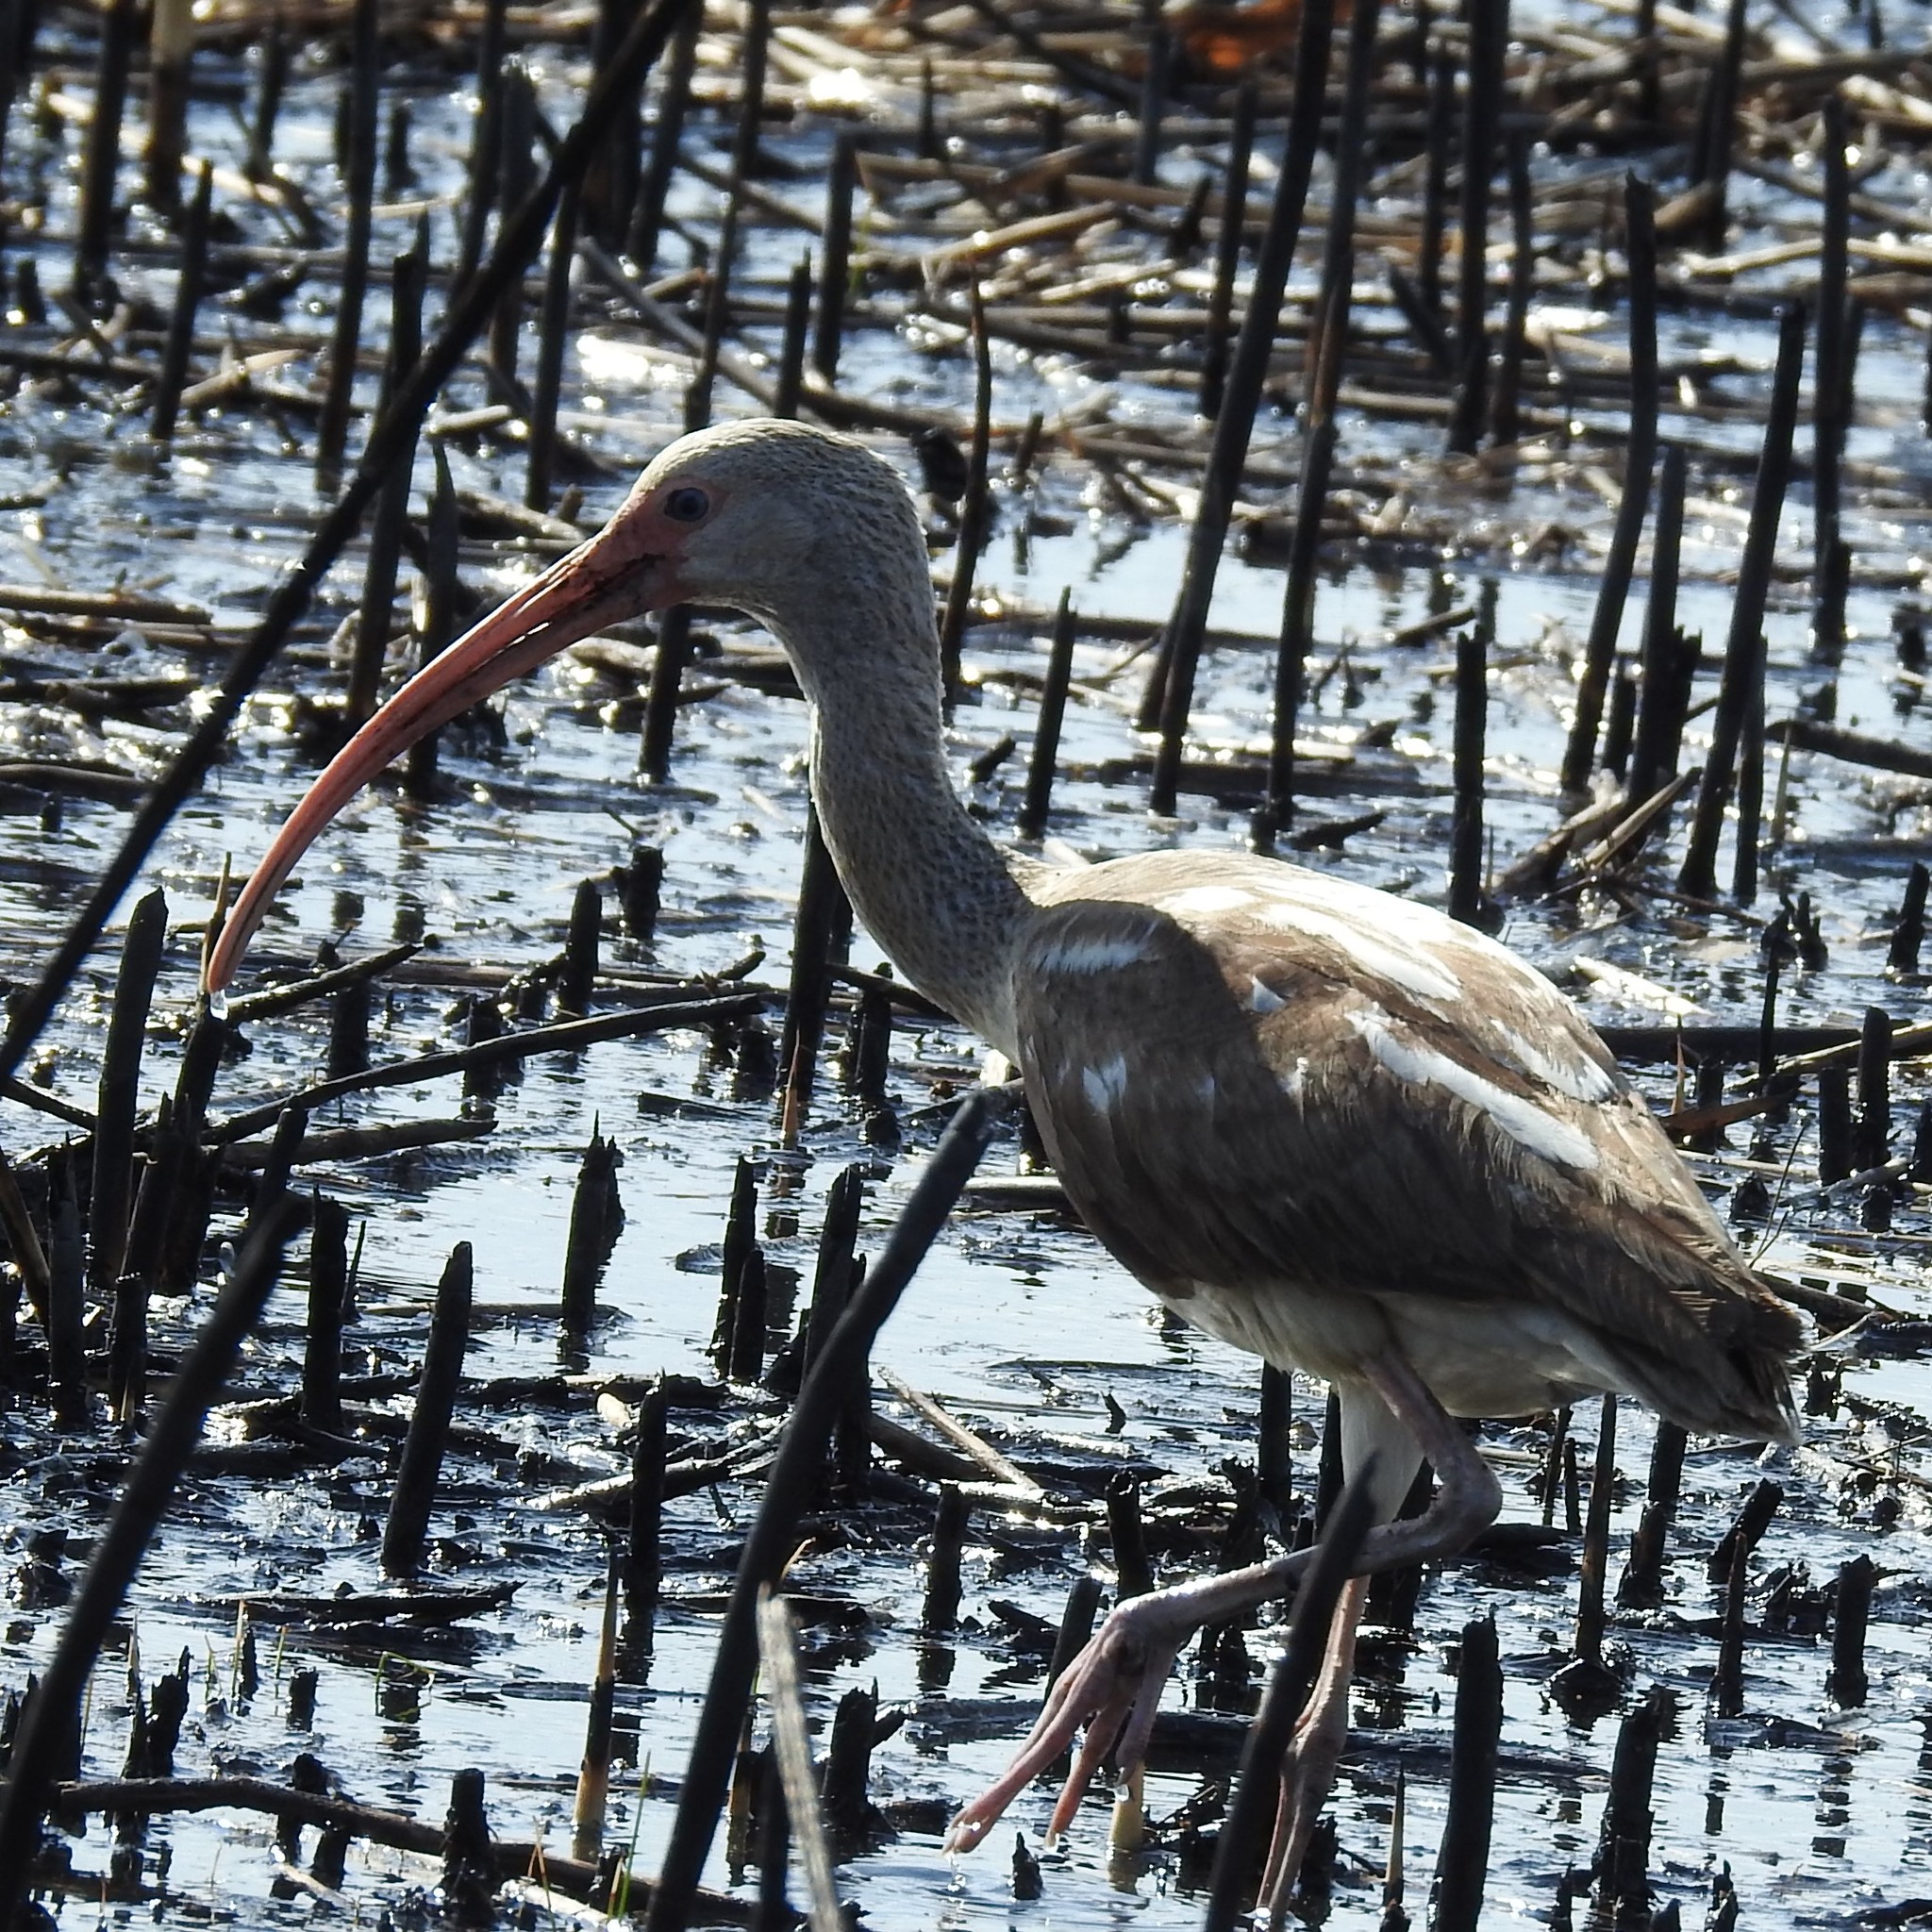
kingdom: Animalia
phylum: Chordata
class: Aves
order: Pelecaniformes
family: Threskiornithidae
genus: Eudocimus
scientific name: Eudocimus albus
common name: White ibis
